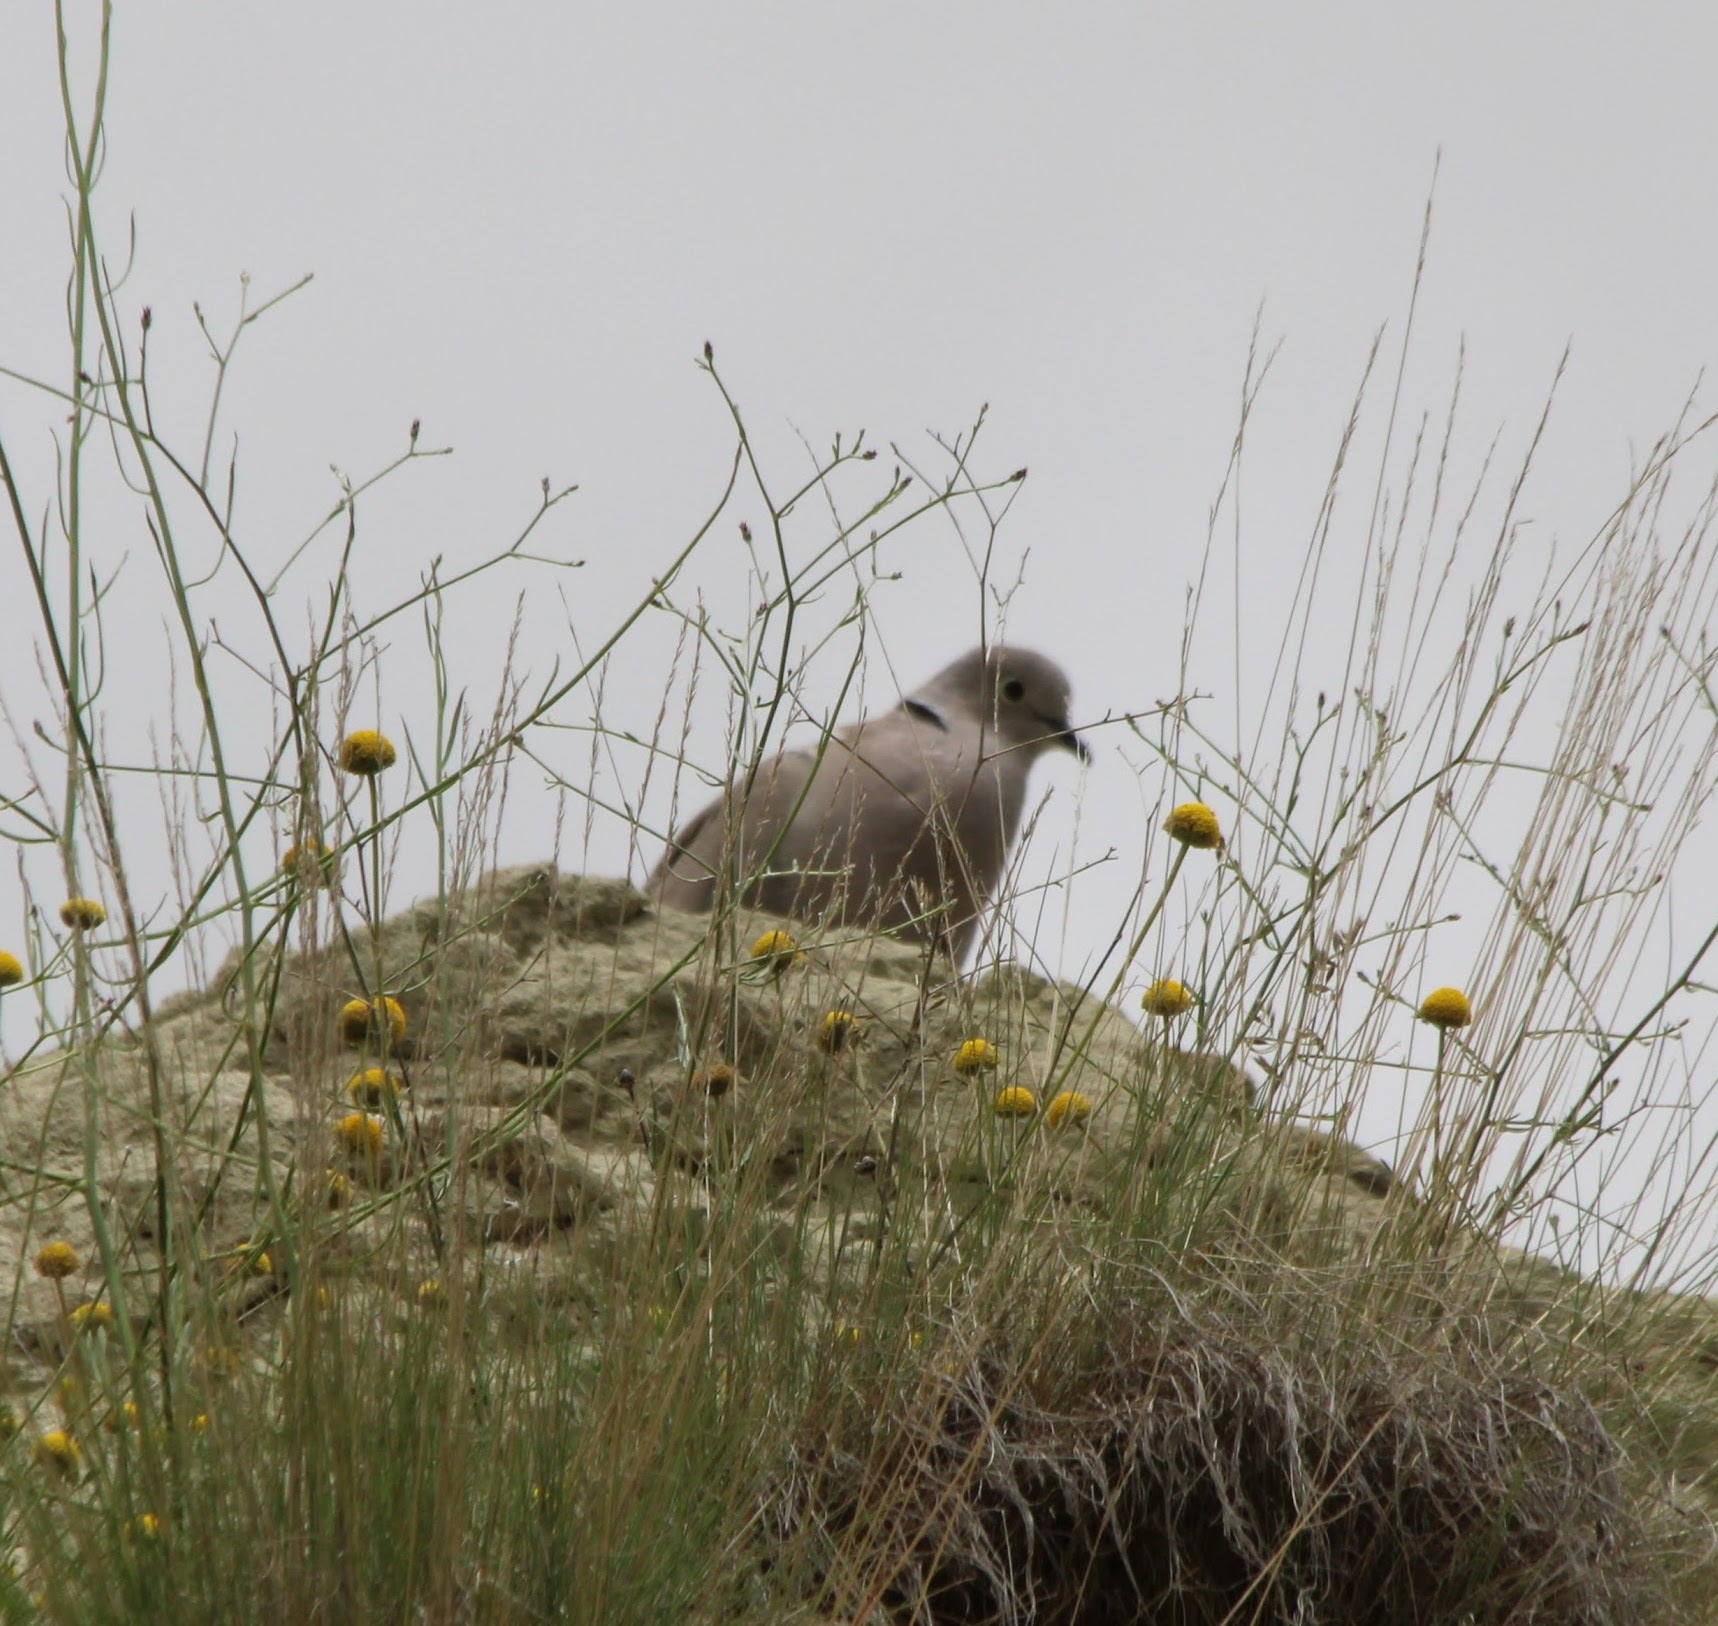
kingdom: Animalia
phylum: Chordata
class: Aves
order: Columbiformes
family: Columbidae
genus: Streptopelia
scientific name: Streptopelia decaocto
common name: Eurasian collared dove
